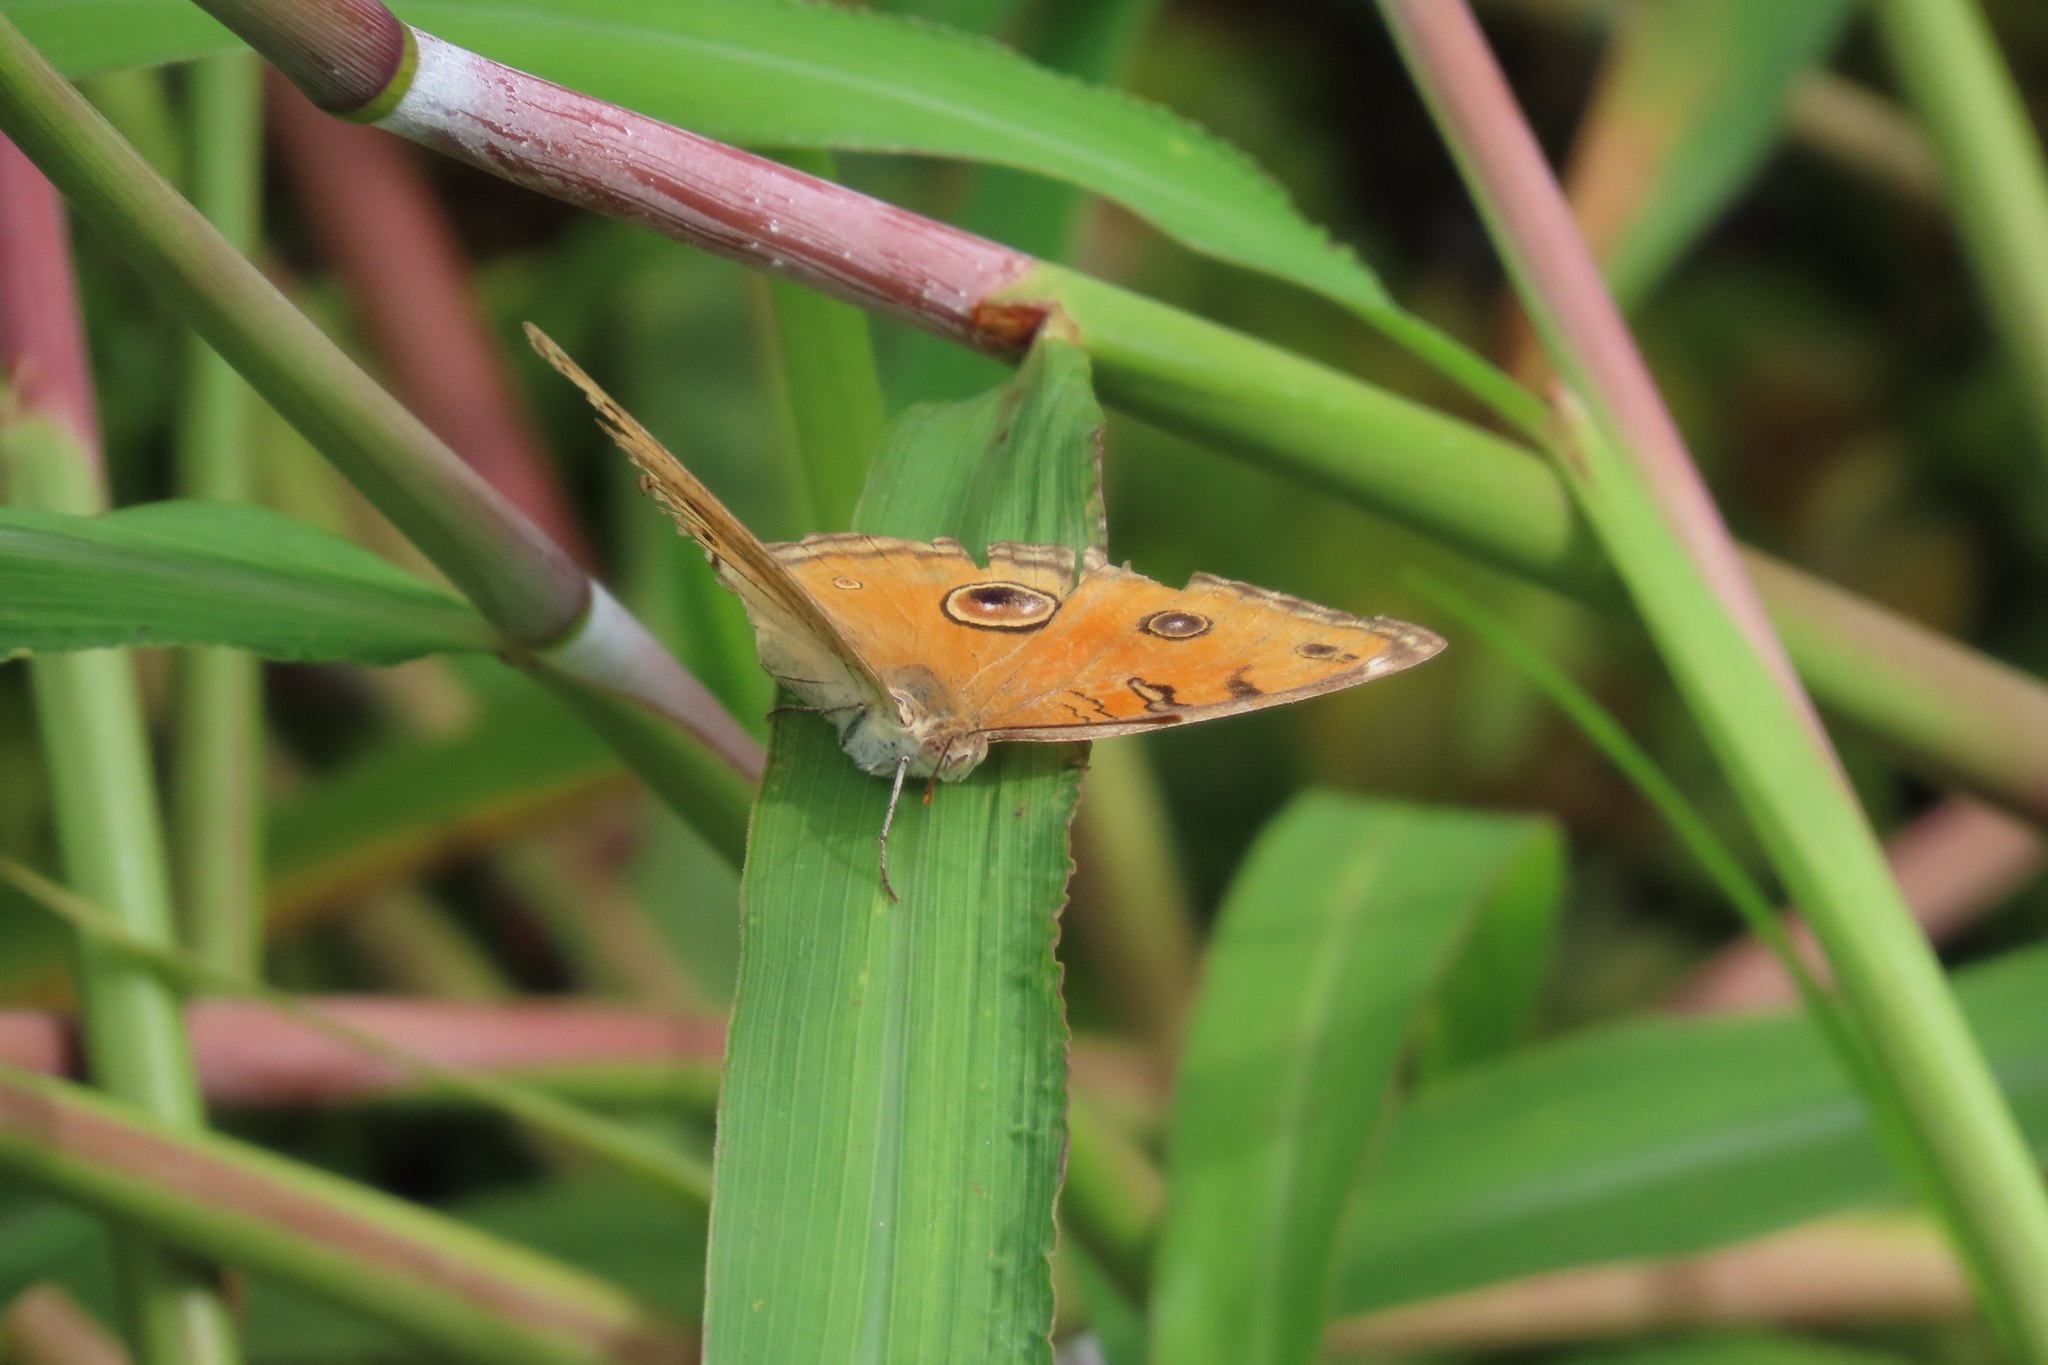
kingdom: Animalia
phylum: Arthropoda
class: Insecta
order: Lepidoptera
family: Nymphalidae
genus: Junonia
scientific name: Junonia almana
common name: Peacock pansy
